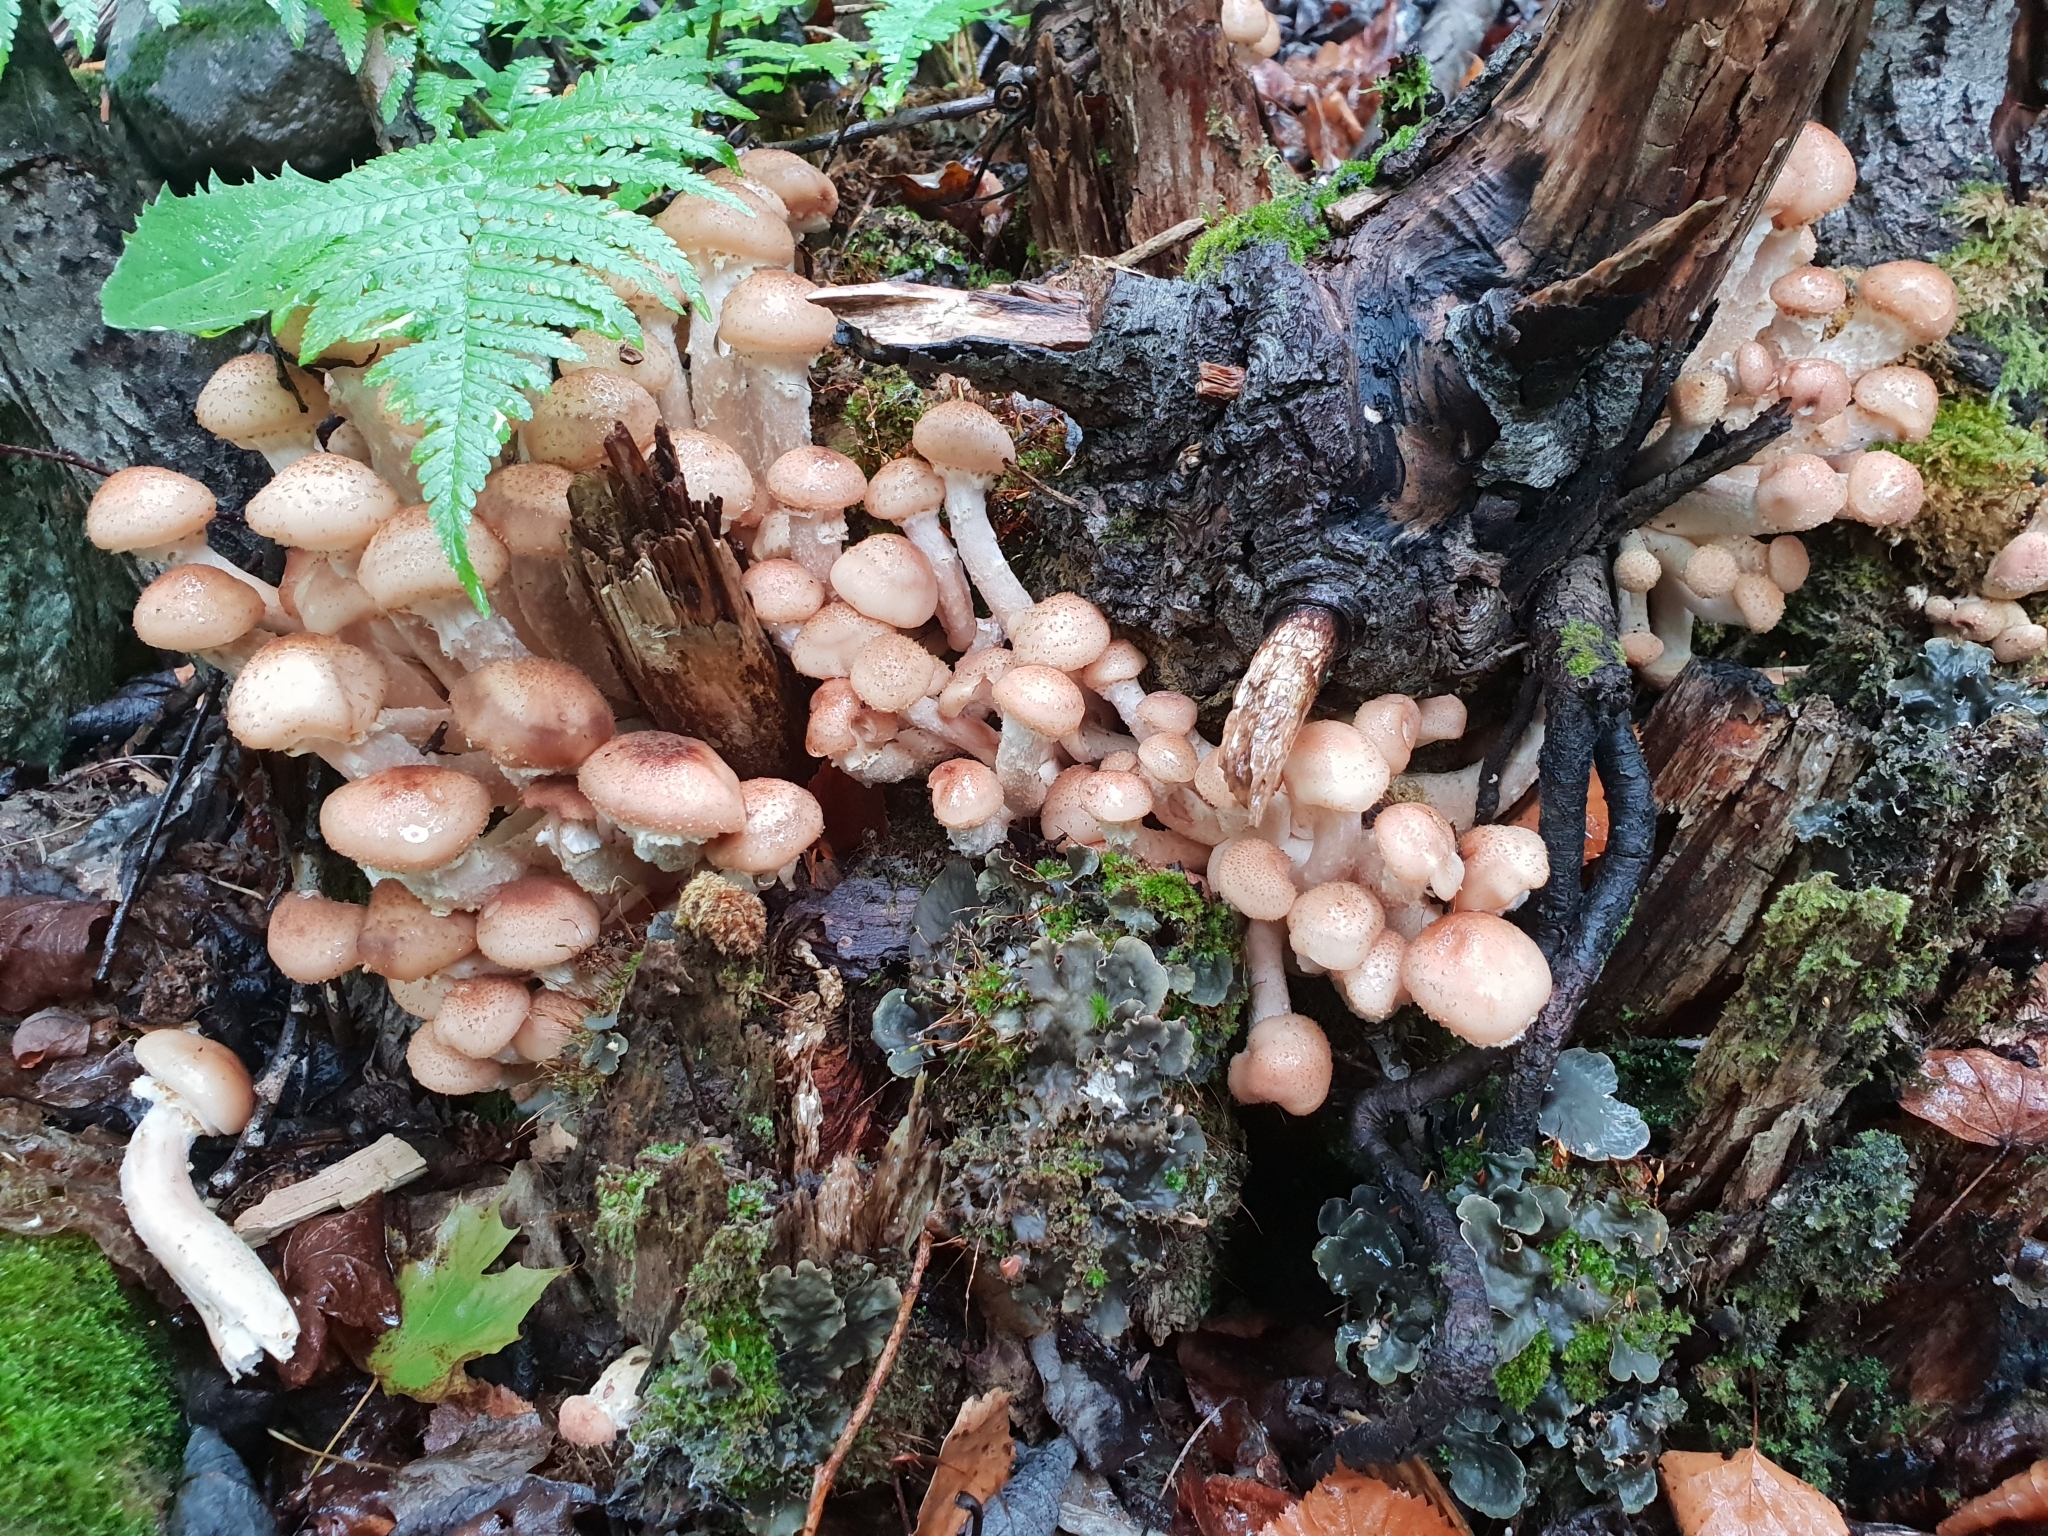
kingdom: Fungi
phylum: Basidiomycota
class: Agaricomycetes
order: Agaricales
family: Physalacriaceae
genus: Armillaria
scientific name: Armillaria borealis
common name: Northern honey fungus
